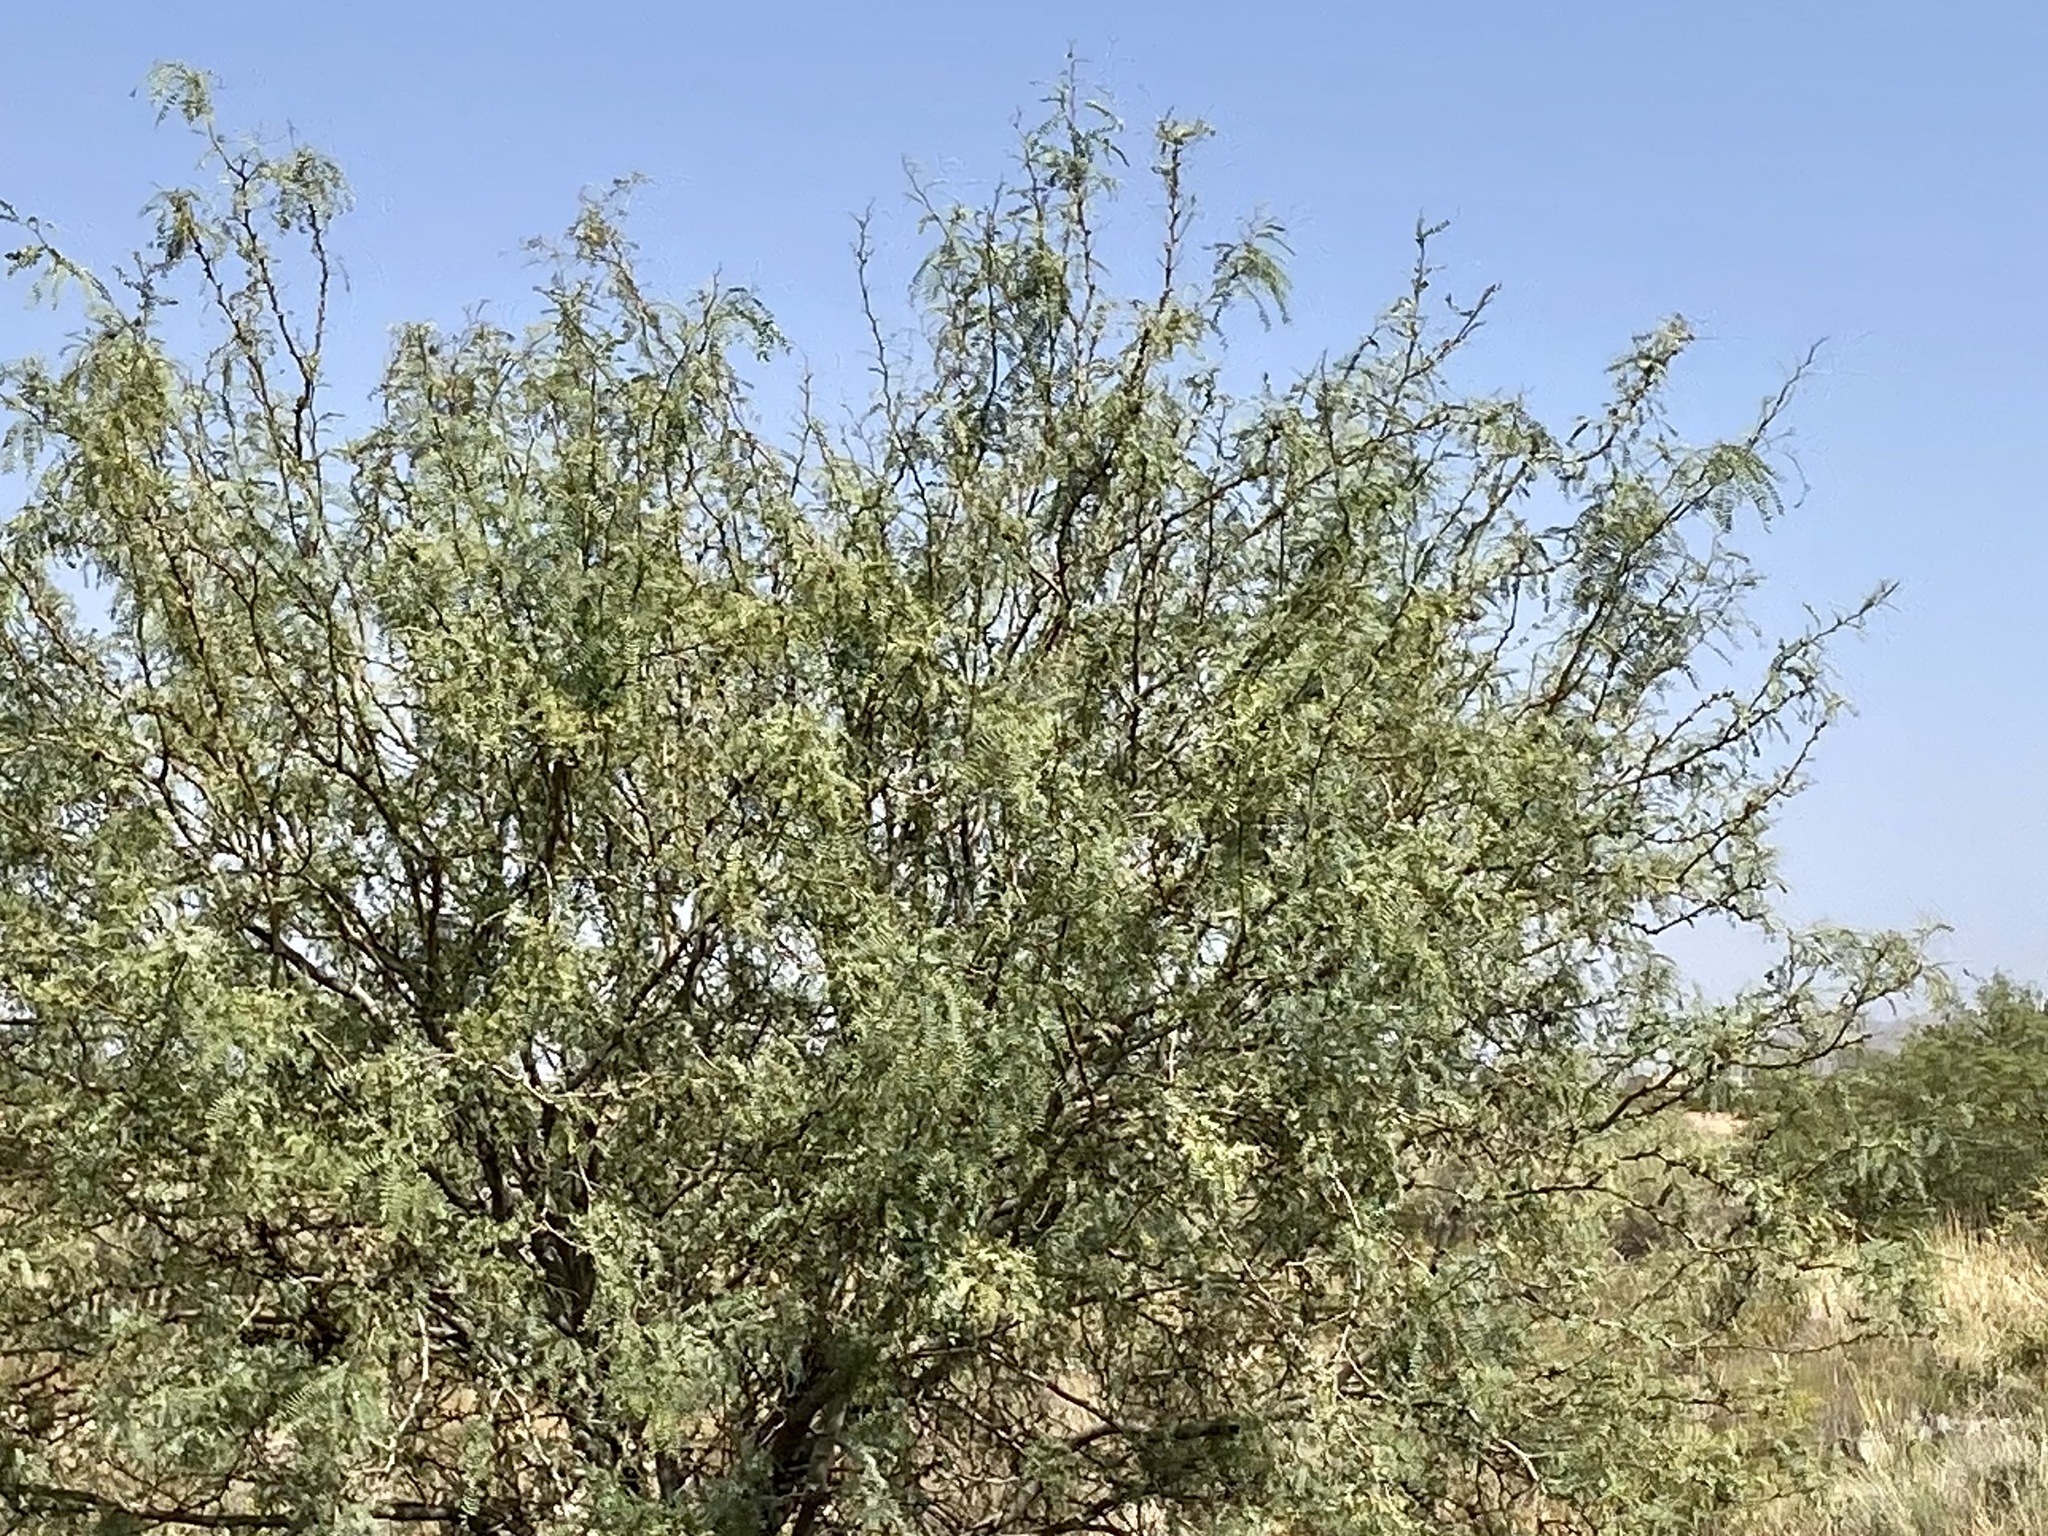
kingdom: Plantae
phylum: Tracheophyta
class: Magnoliopsida
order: Fabales
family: Fabaceae
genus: Prosopis
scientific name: Prosopis glandulosa
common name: Honey mesquite
